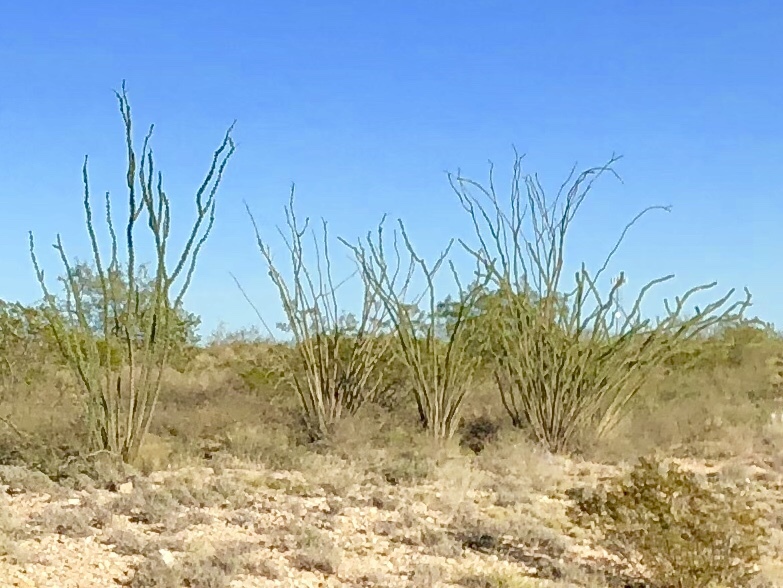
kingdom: Plantae
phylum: Tracheophyta
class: Magnoliopsida
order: Ericales
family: Fouquieriaceae
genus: Fouquieria
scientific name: Fouquieria splendens
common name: Vine-cactus
